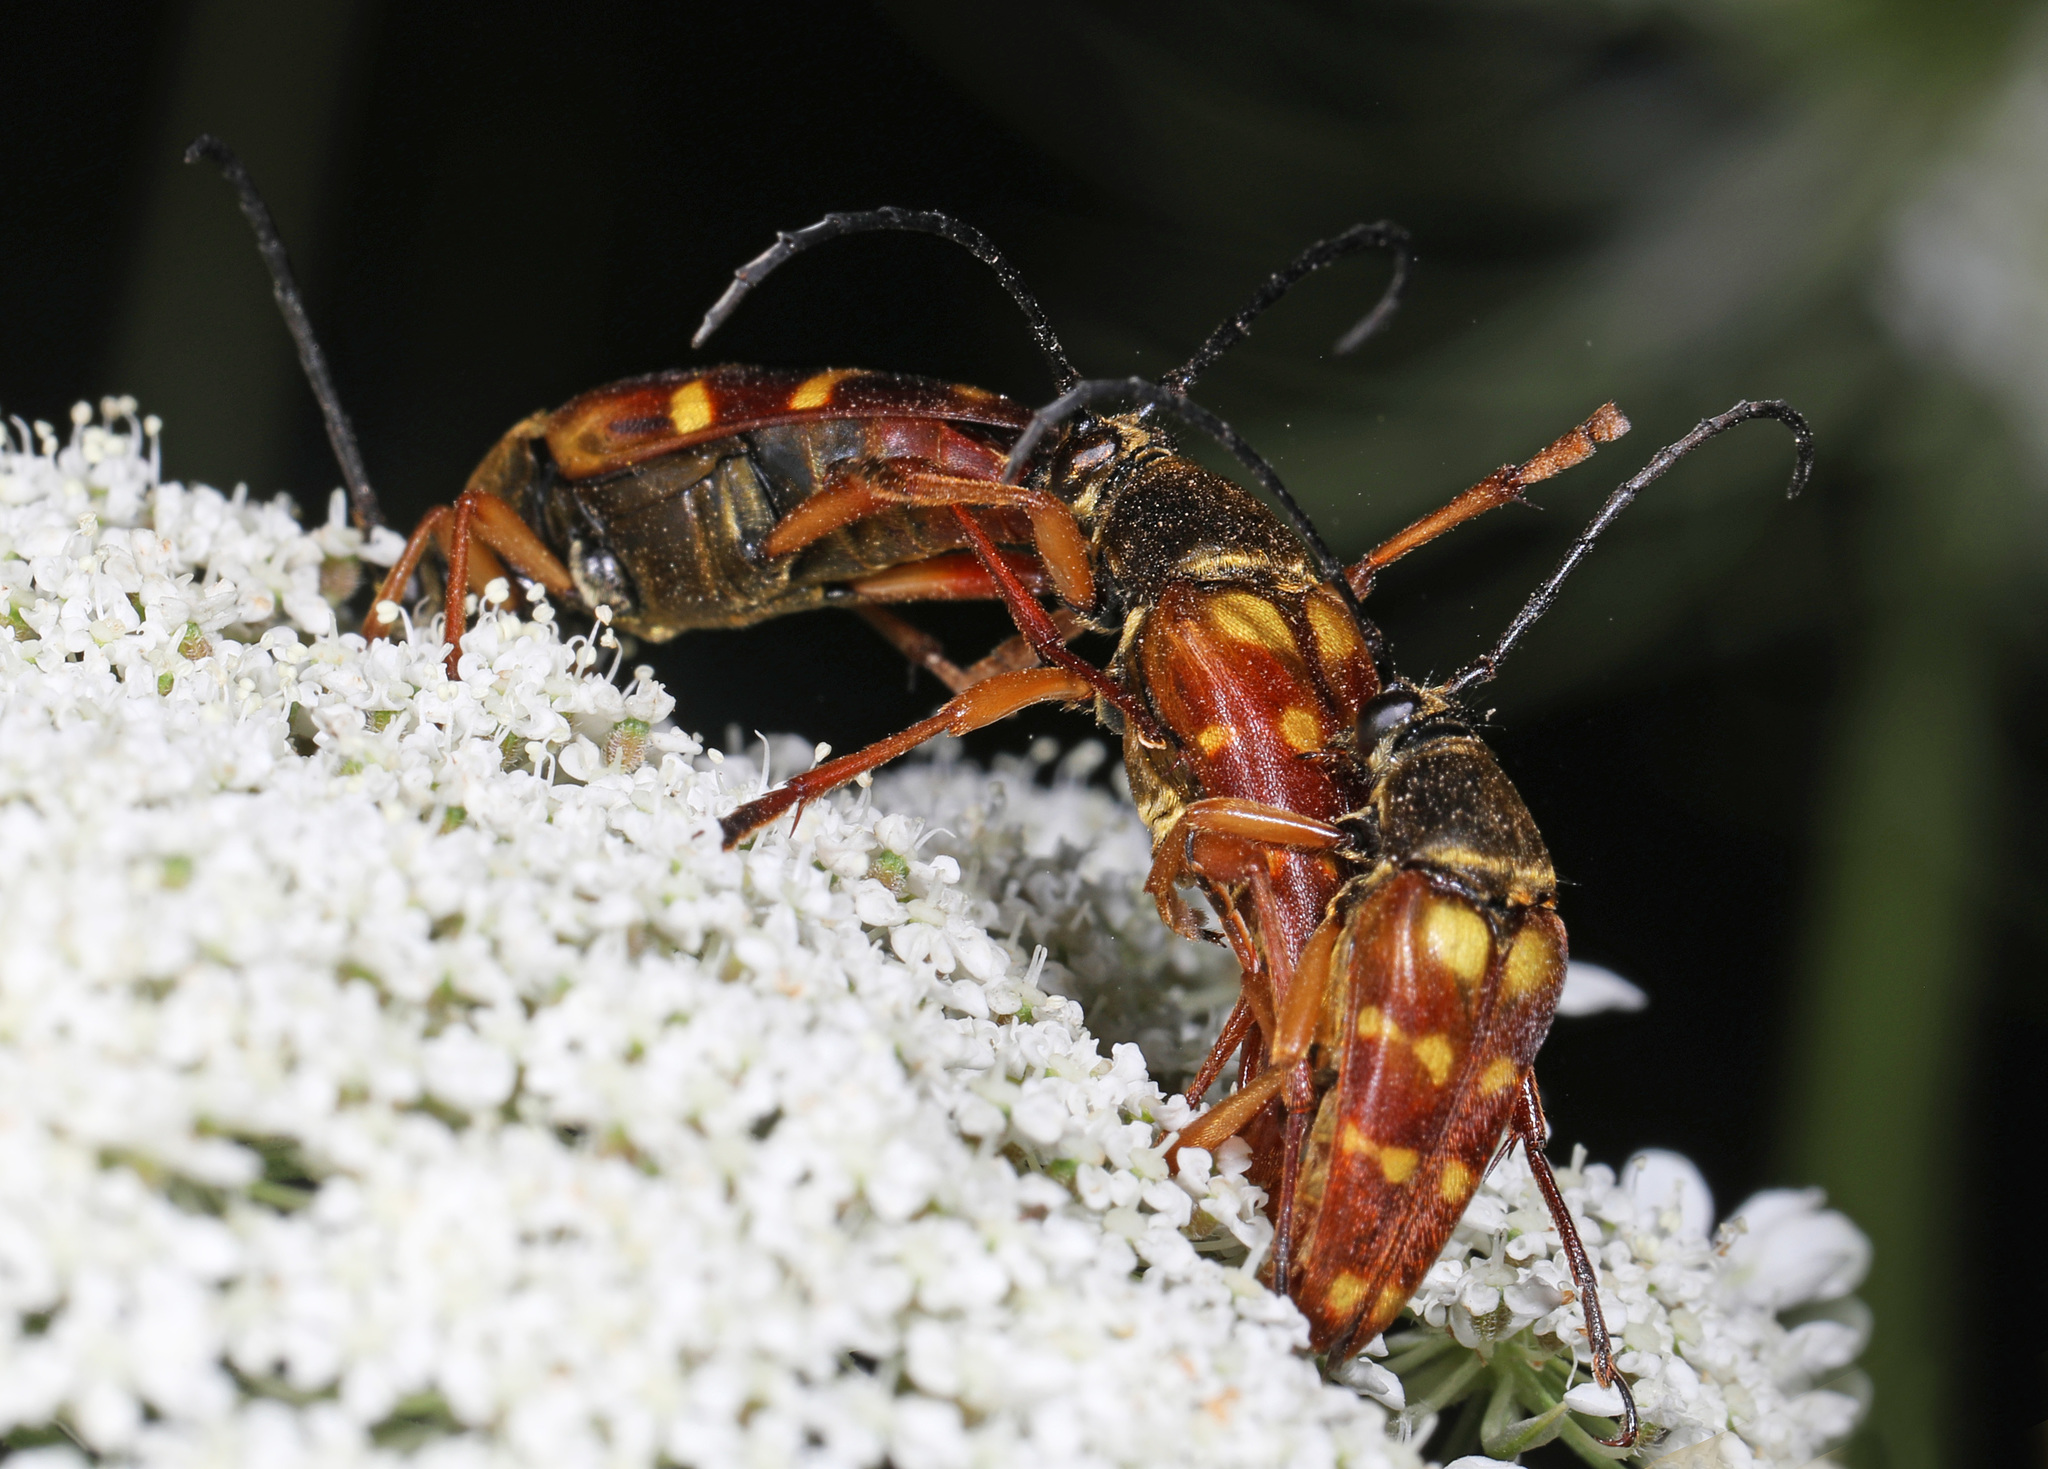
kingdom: Animalia
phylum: Arthropoda
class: Insecta
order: Coleoptera
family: Cerambycidae
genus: Typocerus
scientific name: Typocerus velutinus
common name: Banded longhorn beetle
